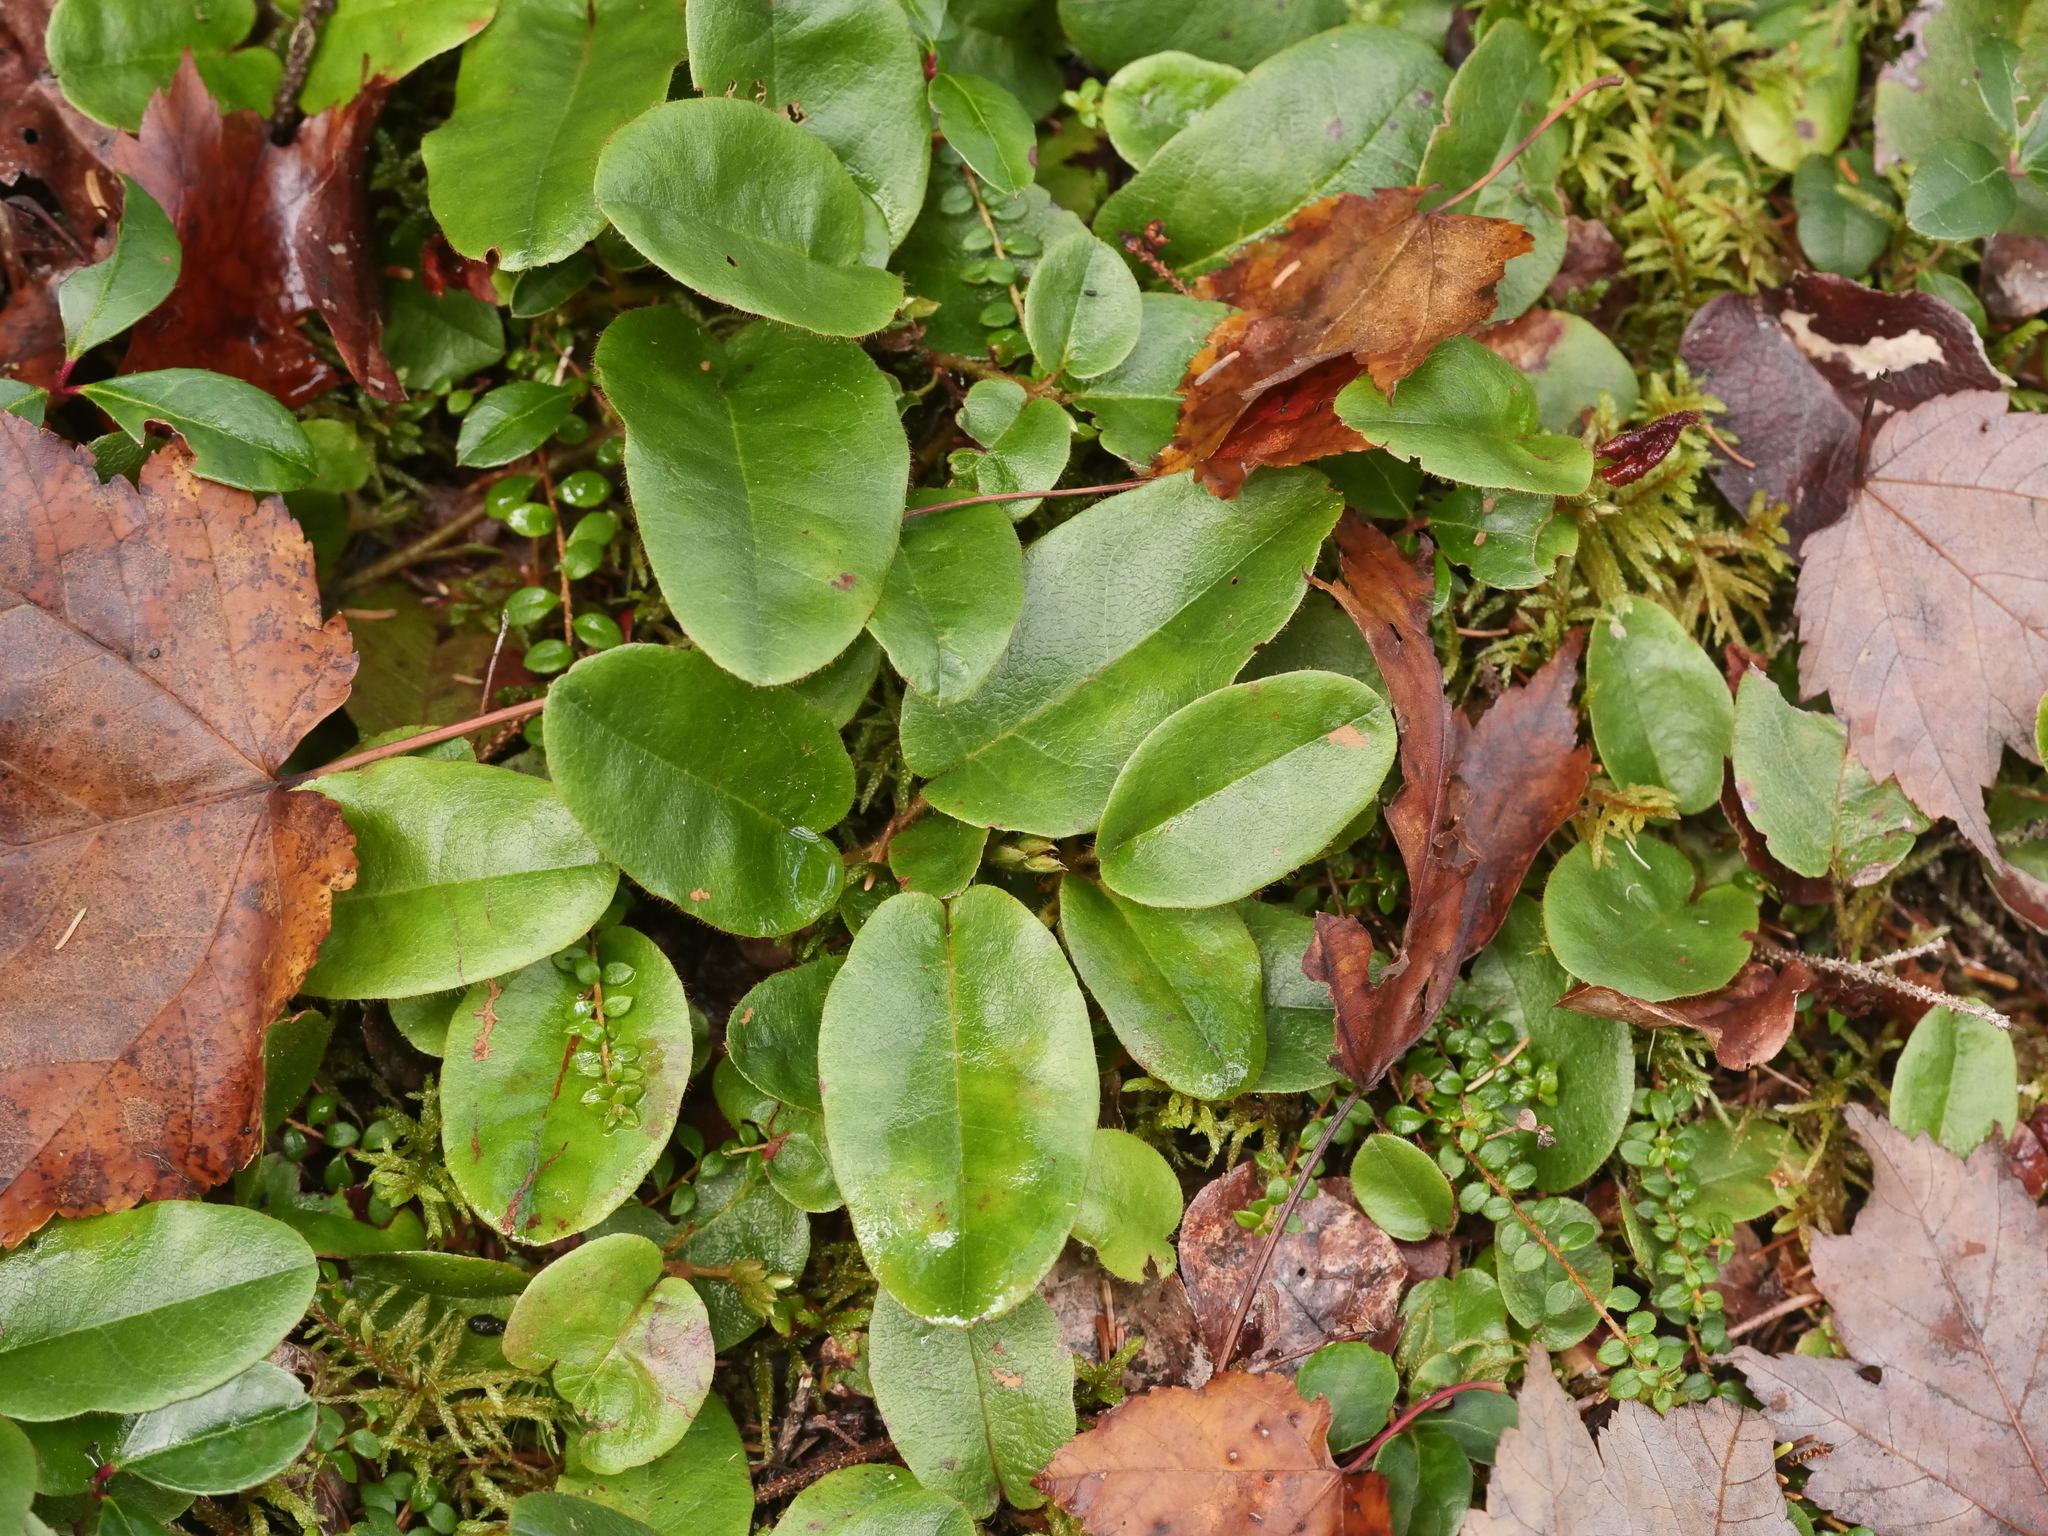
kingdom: Plantae
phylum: Tracheophyta
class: Magnoliopsida
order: Ericales
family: Ericaceae
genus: Epigaea
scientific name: Epigaea repens
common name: Gravelroot
